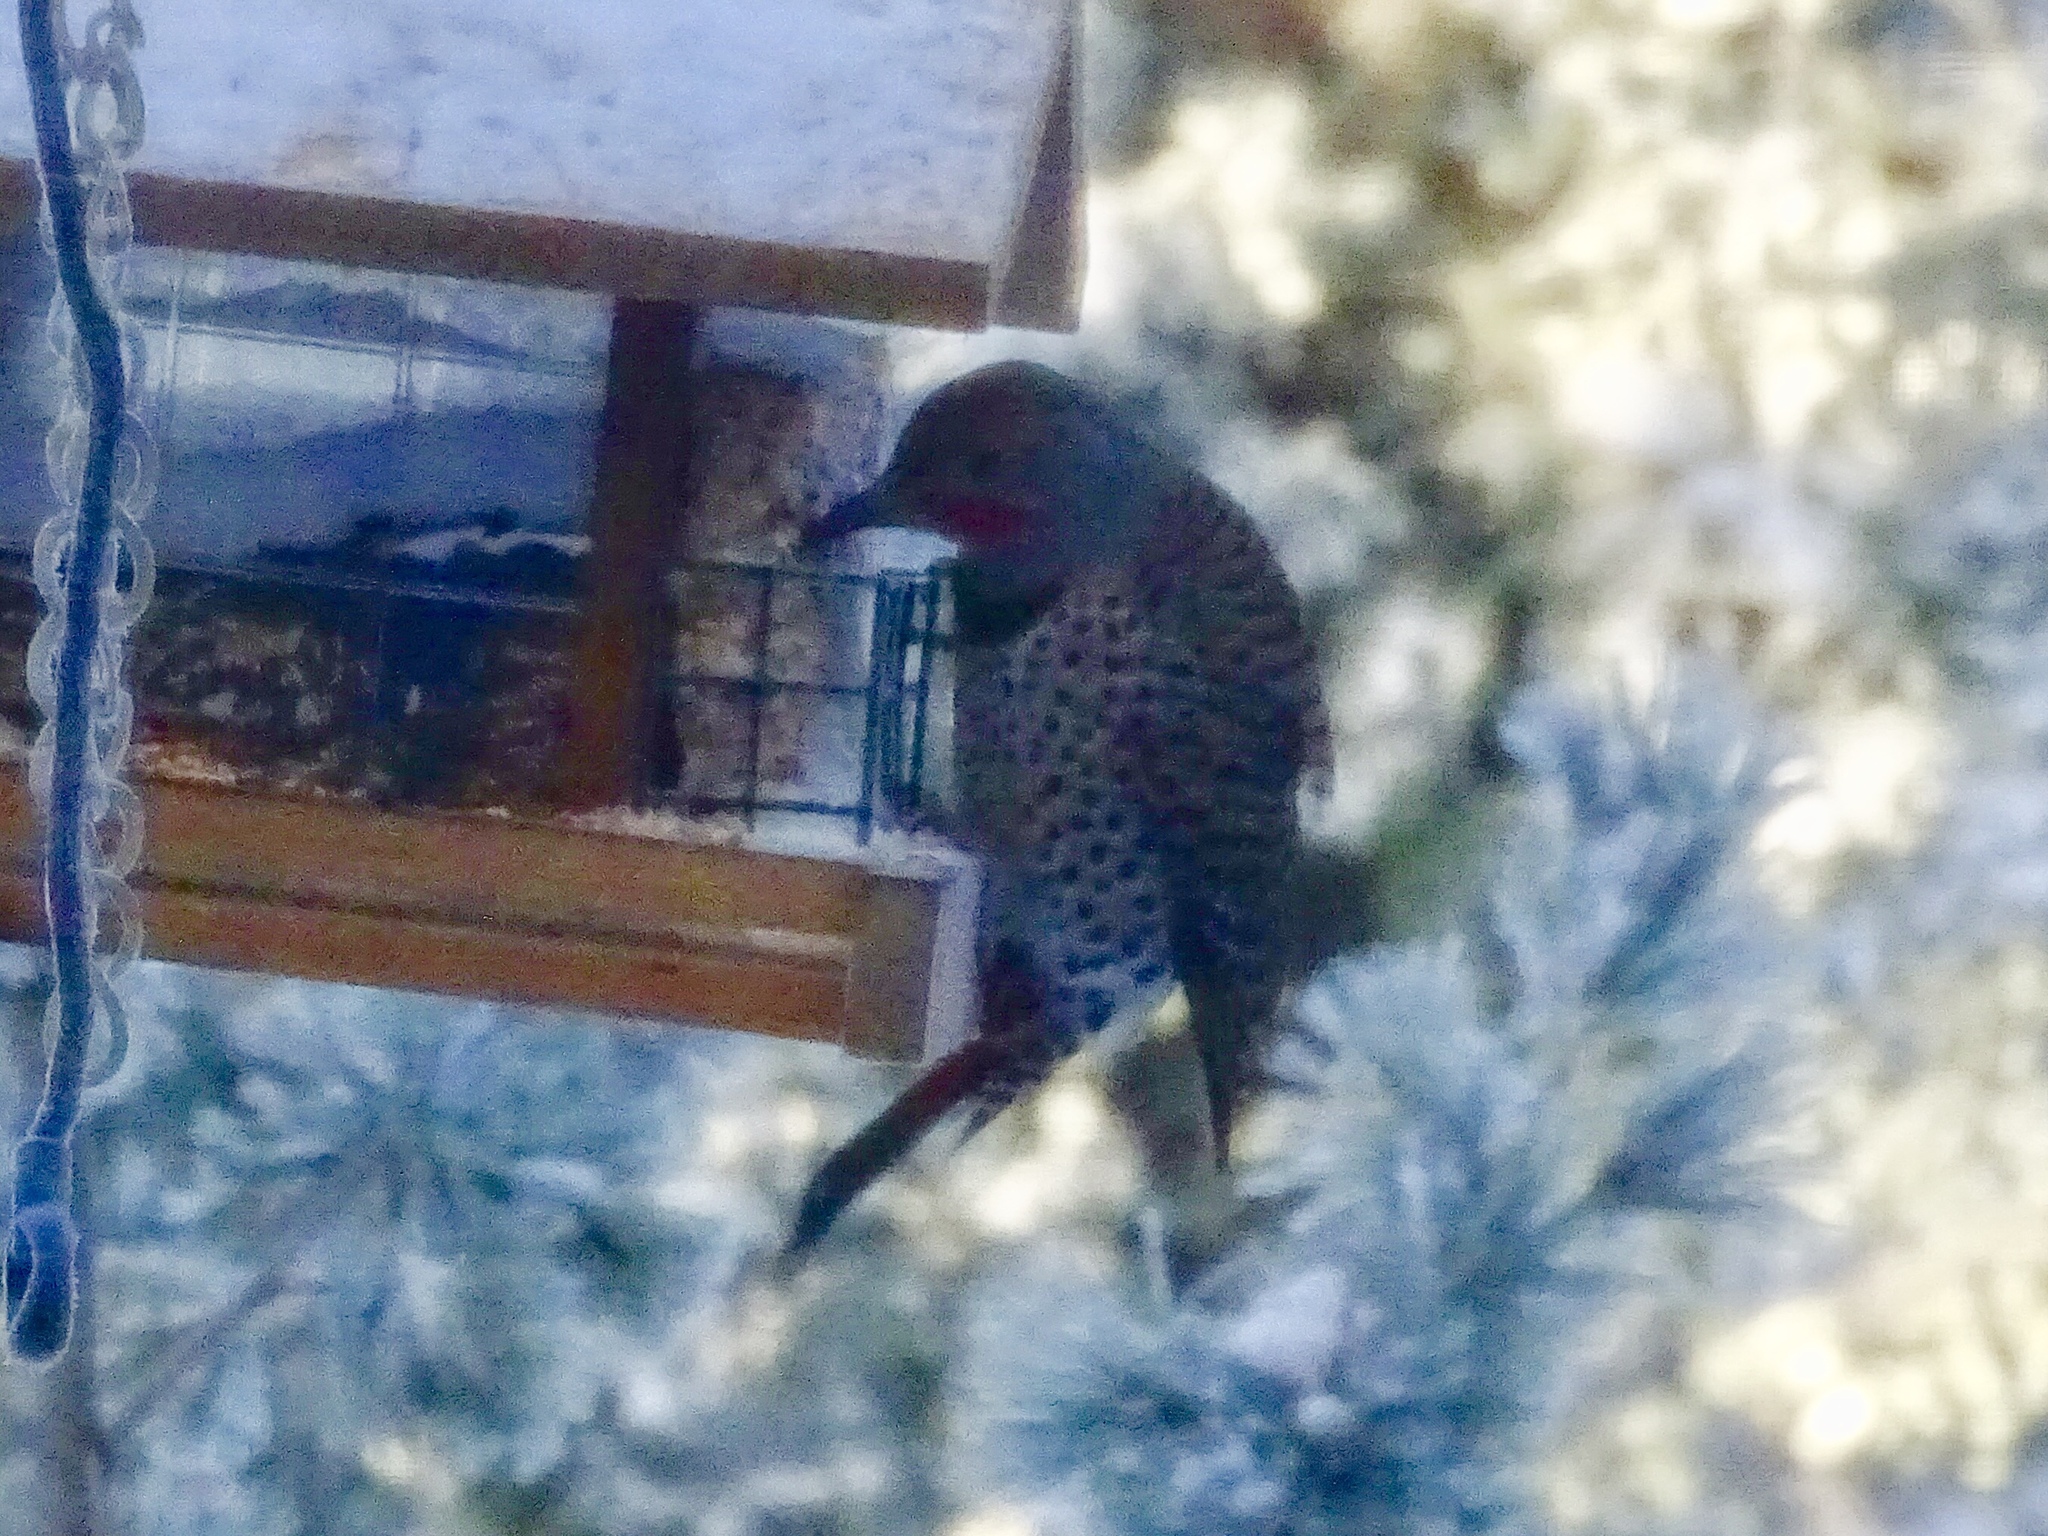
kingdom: Animalia
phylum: Chordata
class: Aves
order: Piciformes
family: Picidae
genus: Colaptes
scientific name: Colaptes auratus
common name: Northern flicker
